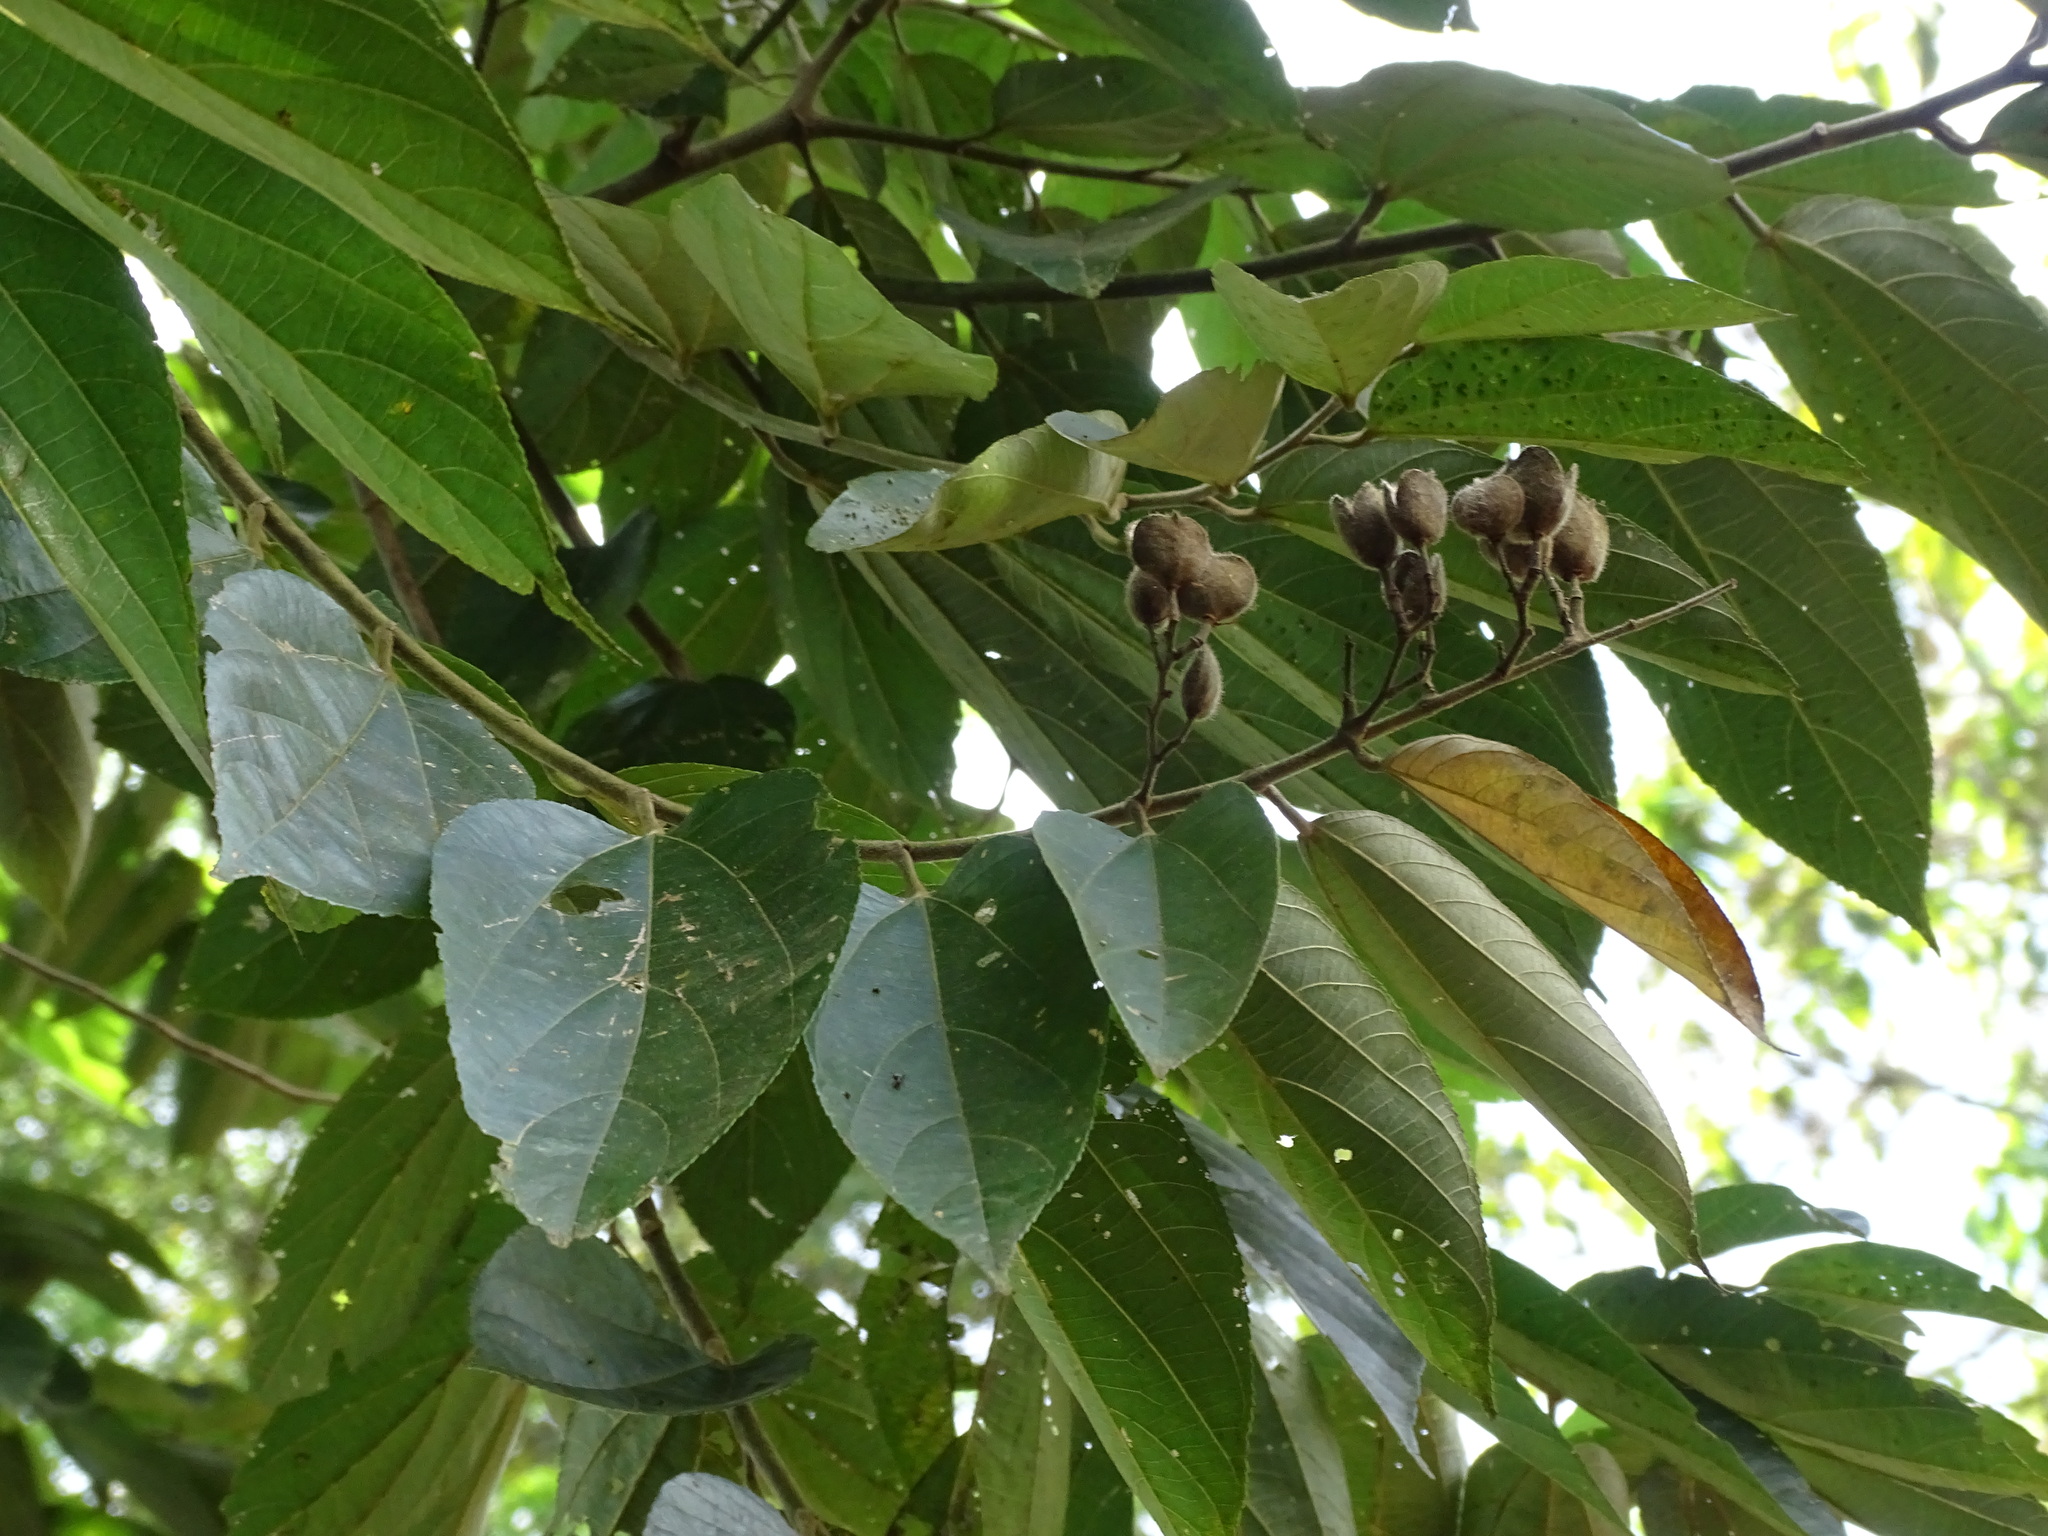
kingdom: Plantae
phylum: Tracheophyta
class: Magnoliopsida
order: Malvales
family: Malvaceae
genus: Trichospermum
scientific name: Trichospermum mexicanum
